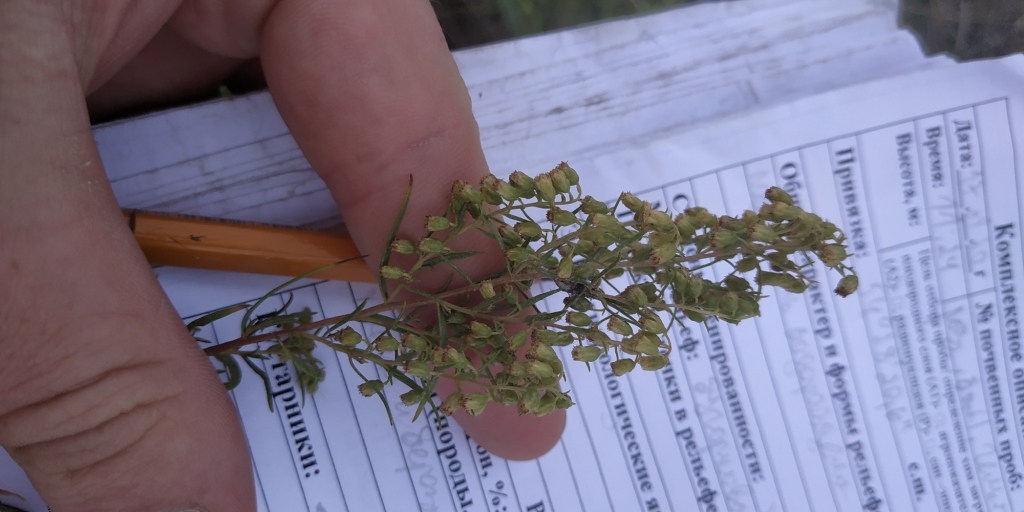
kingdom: Plantae
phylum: Tracheophyta
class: Magnoliopsida
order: Asterales
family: Asteraceae
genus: Artemisia
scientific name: Artemisia dracunculus
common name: Tarragon
